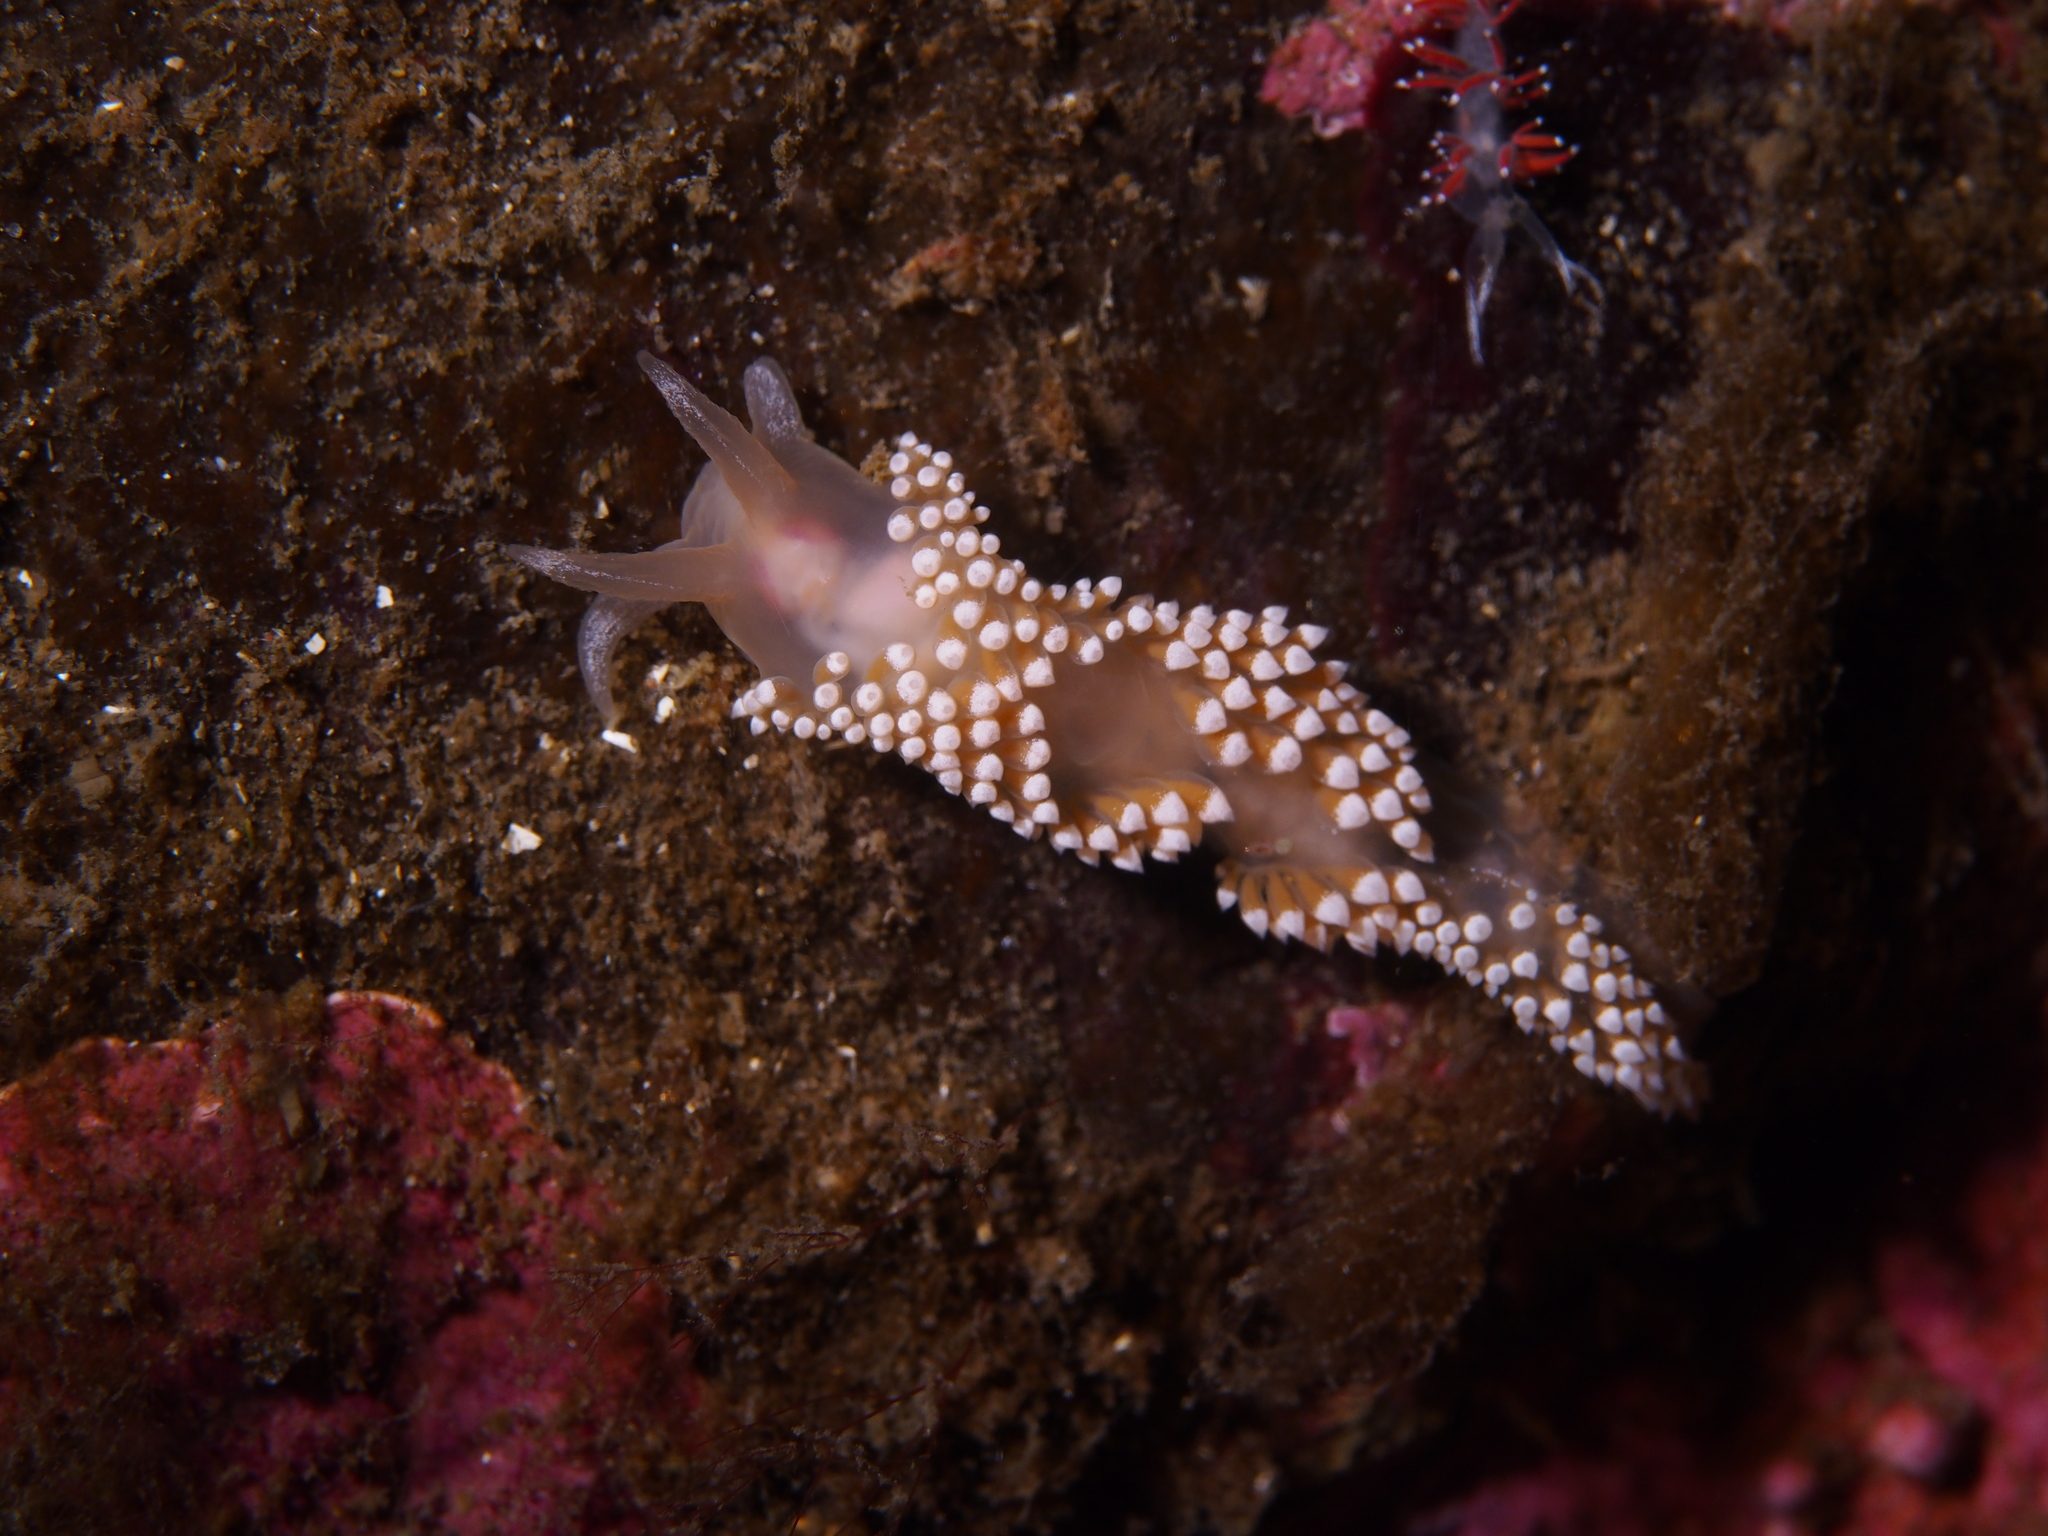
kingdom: Animalia
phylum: Mollusca
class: Gastropoda
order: Nudibranchia
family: Coryphellidae
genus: Coryphella
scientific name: Coryphella verrucosa
